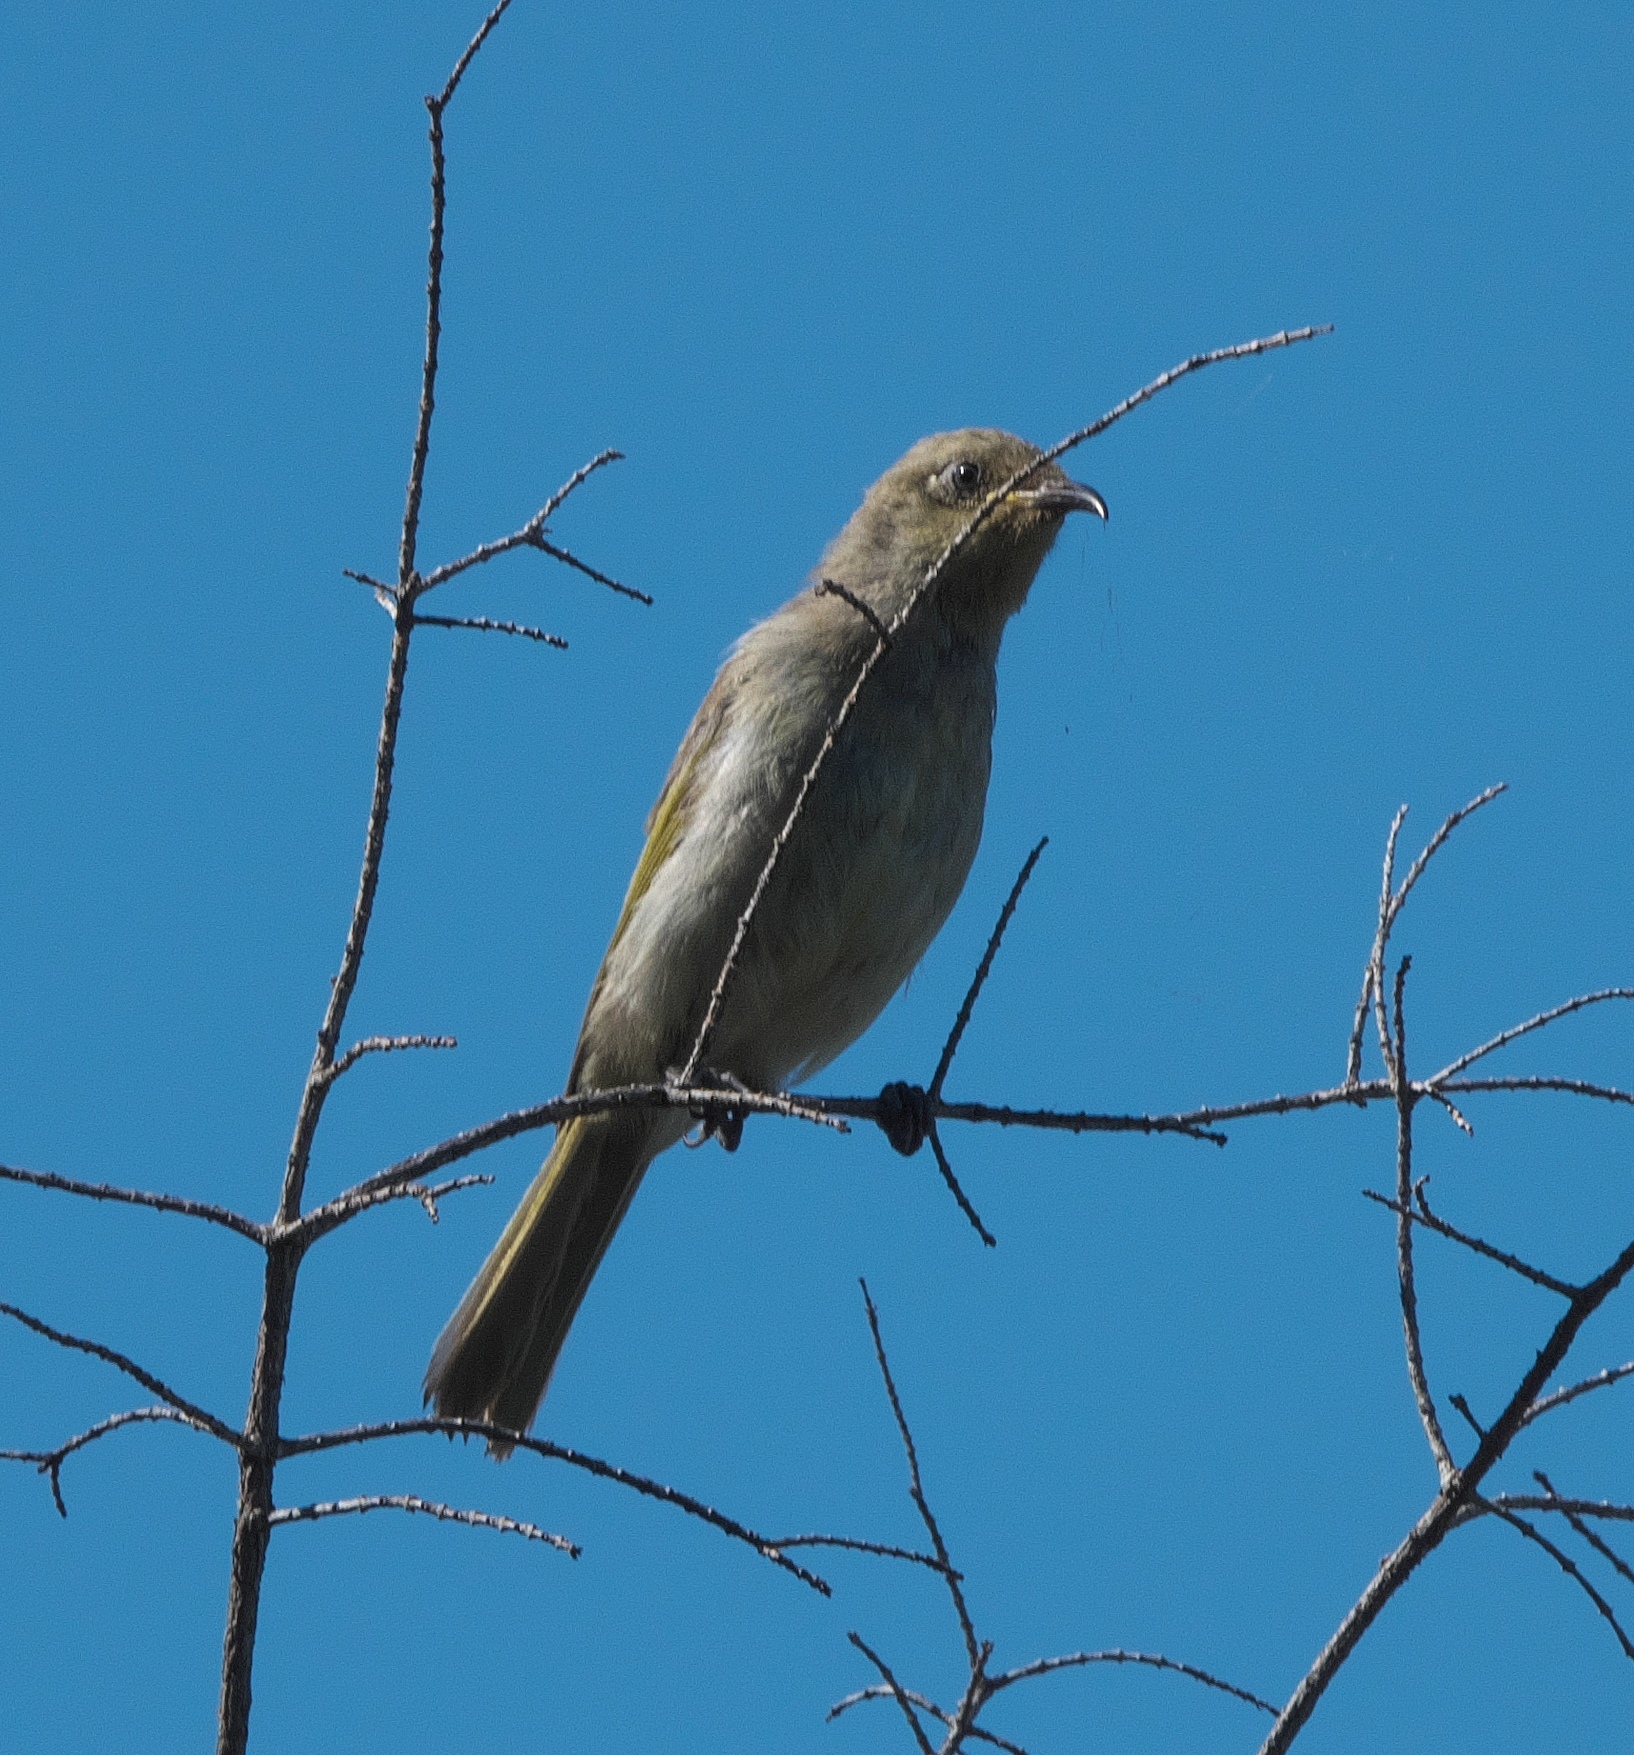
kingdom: Animalia
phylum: Chordata
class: Aves
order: Passeriformes
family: Meliphagidae
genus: Lichmera
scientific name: Lichmera indistincta
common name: Brown honeyeater
